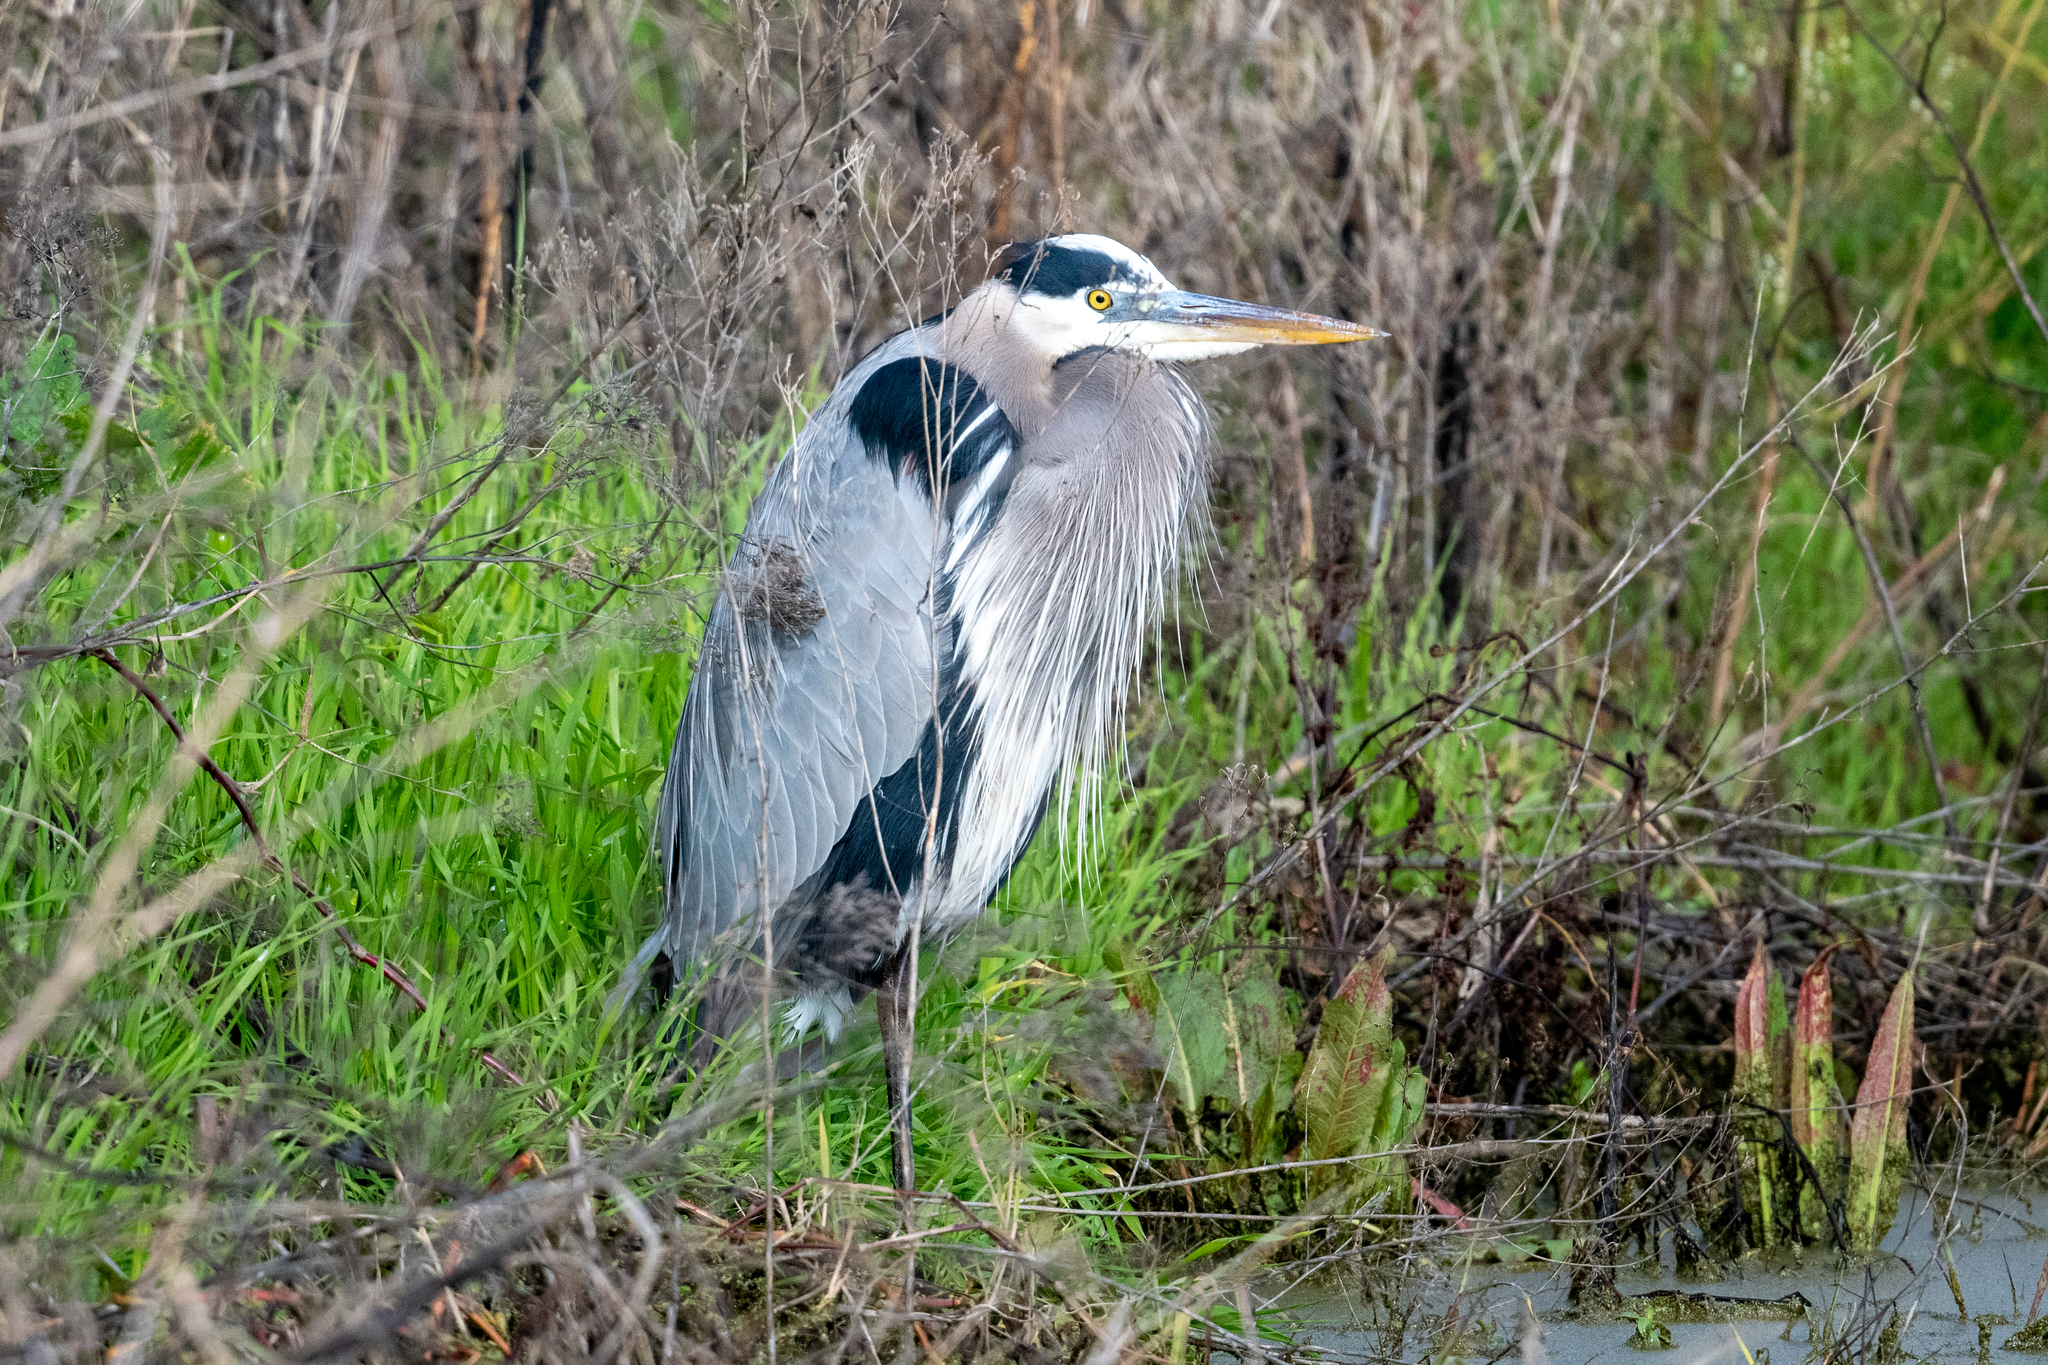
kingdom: Animalia
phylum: Chordata
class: Aves
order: Pelecaniformes
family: Ardeidae
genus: Ardea
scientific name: Ardea herodias
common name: Great blue heron
